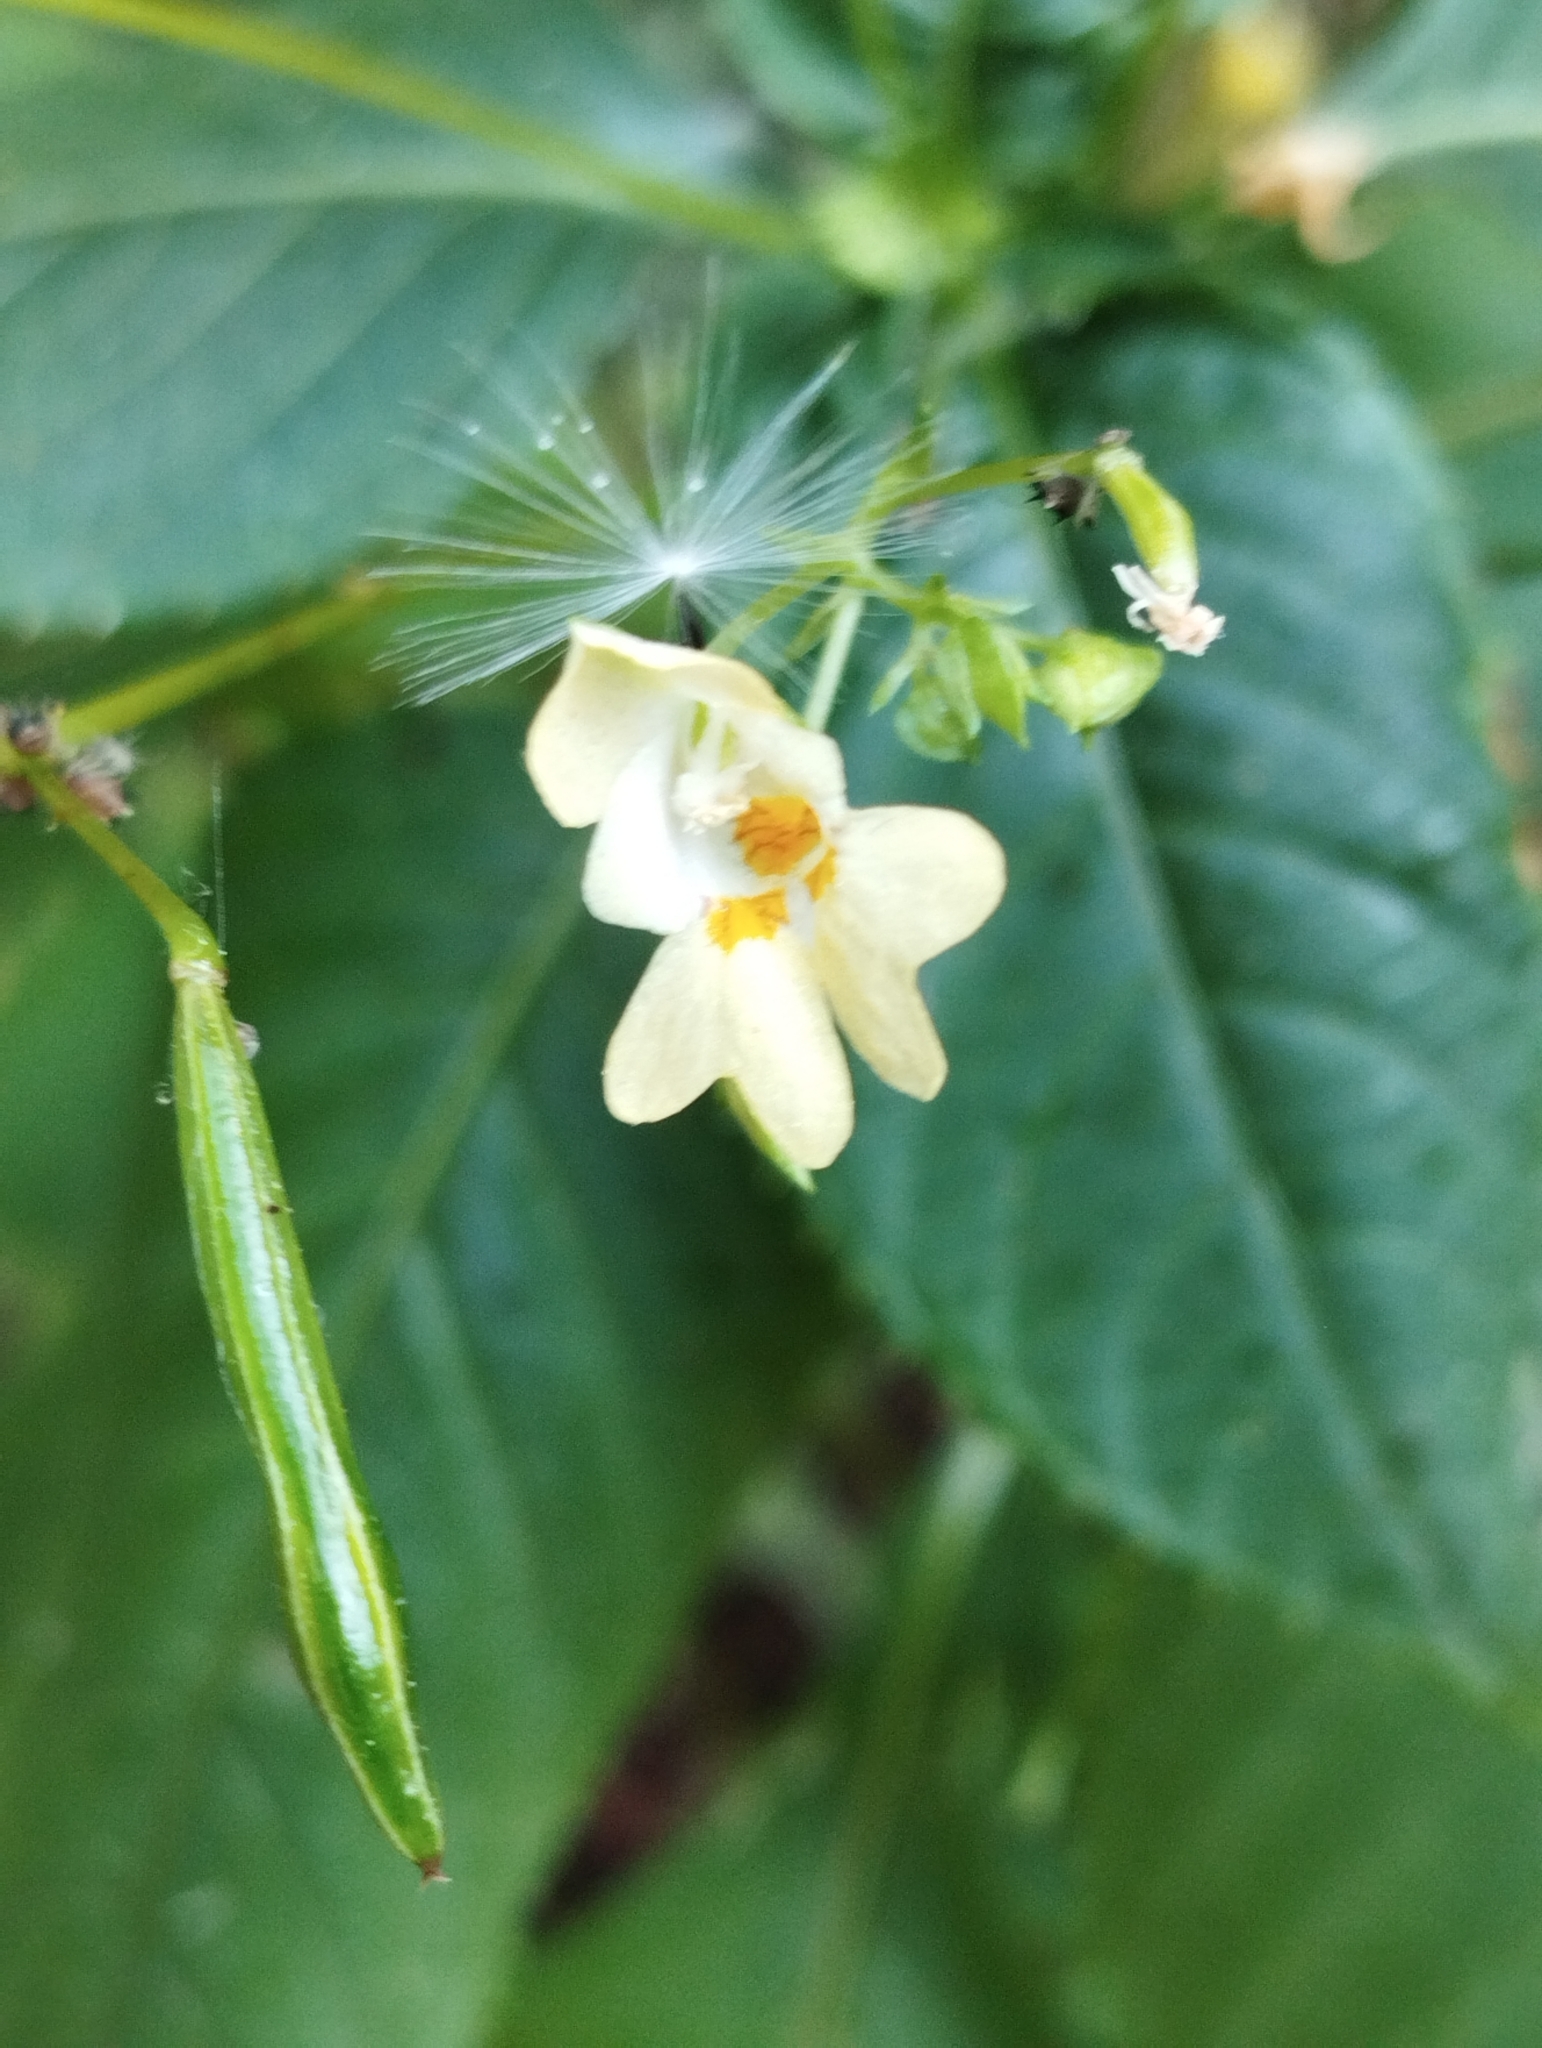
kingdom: Plantae
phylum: Tracheophyta
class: Magnoliopsida
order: Ericales
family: Balsaminaceae
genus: Impatiens
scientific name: Impatiens parviflora
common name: Small balsam
